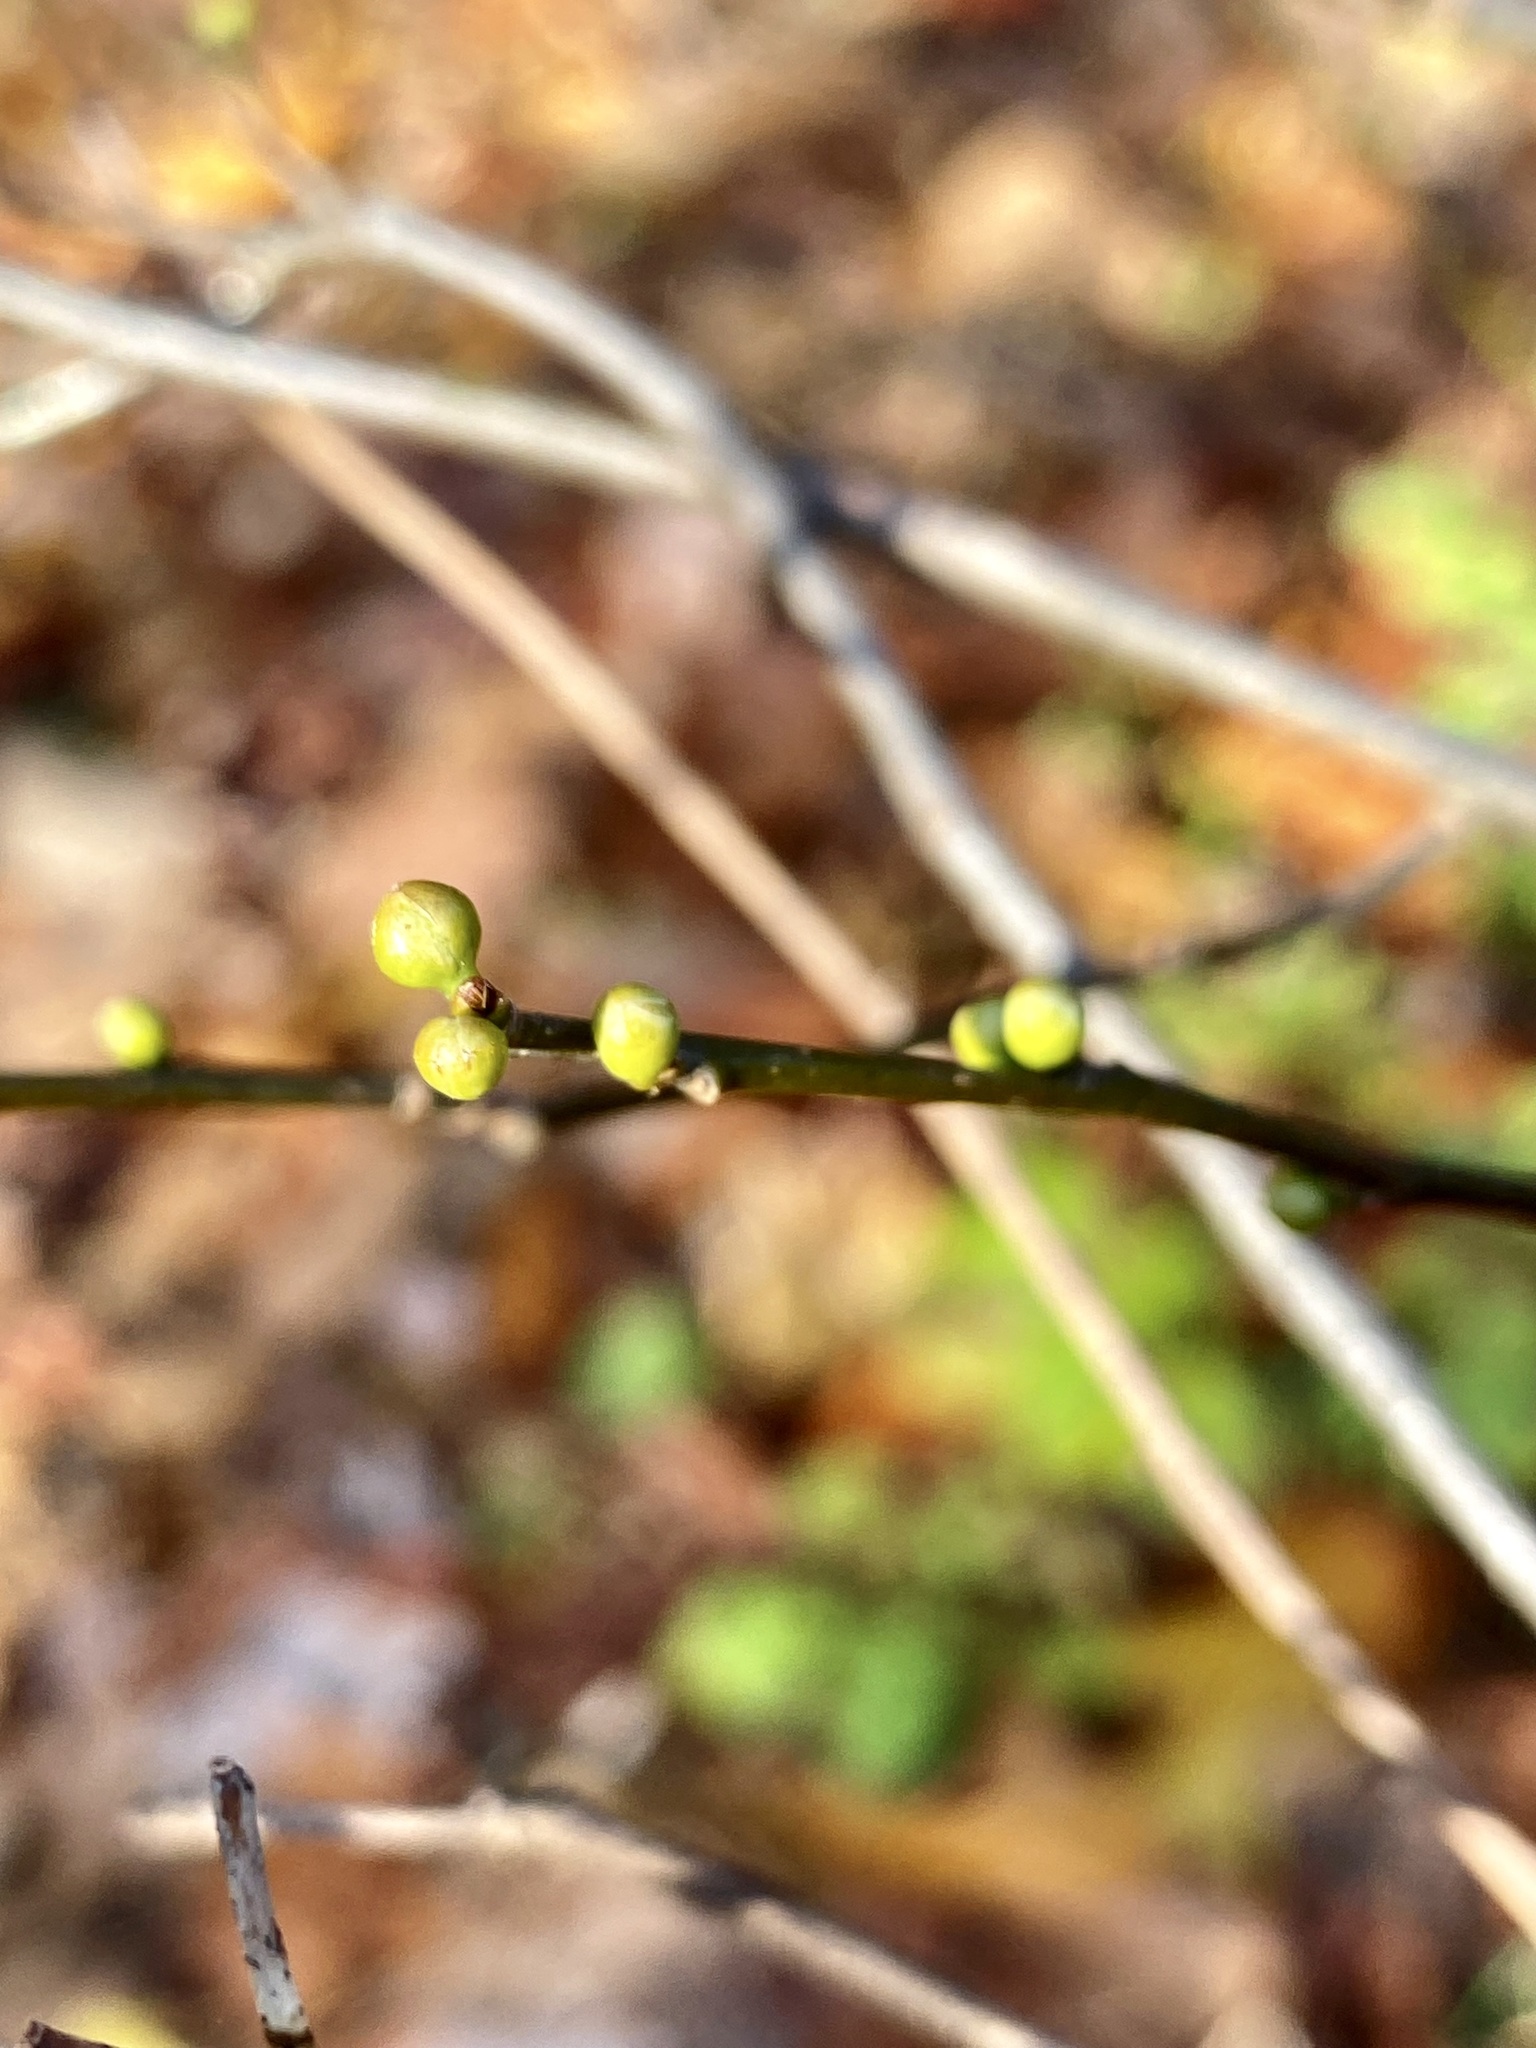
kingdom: Plantae
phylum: Tracheophyta
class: Magnoliopsida
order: Laurales
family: Lauraceae
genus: Lindera
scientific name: Lindera benzoin
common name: Spicebush
